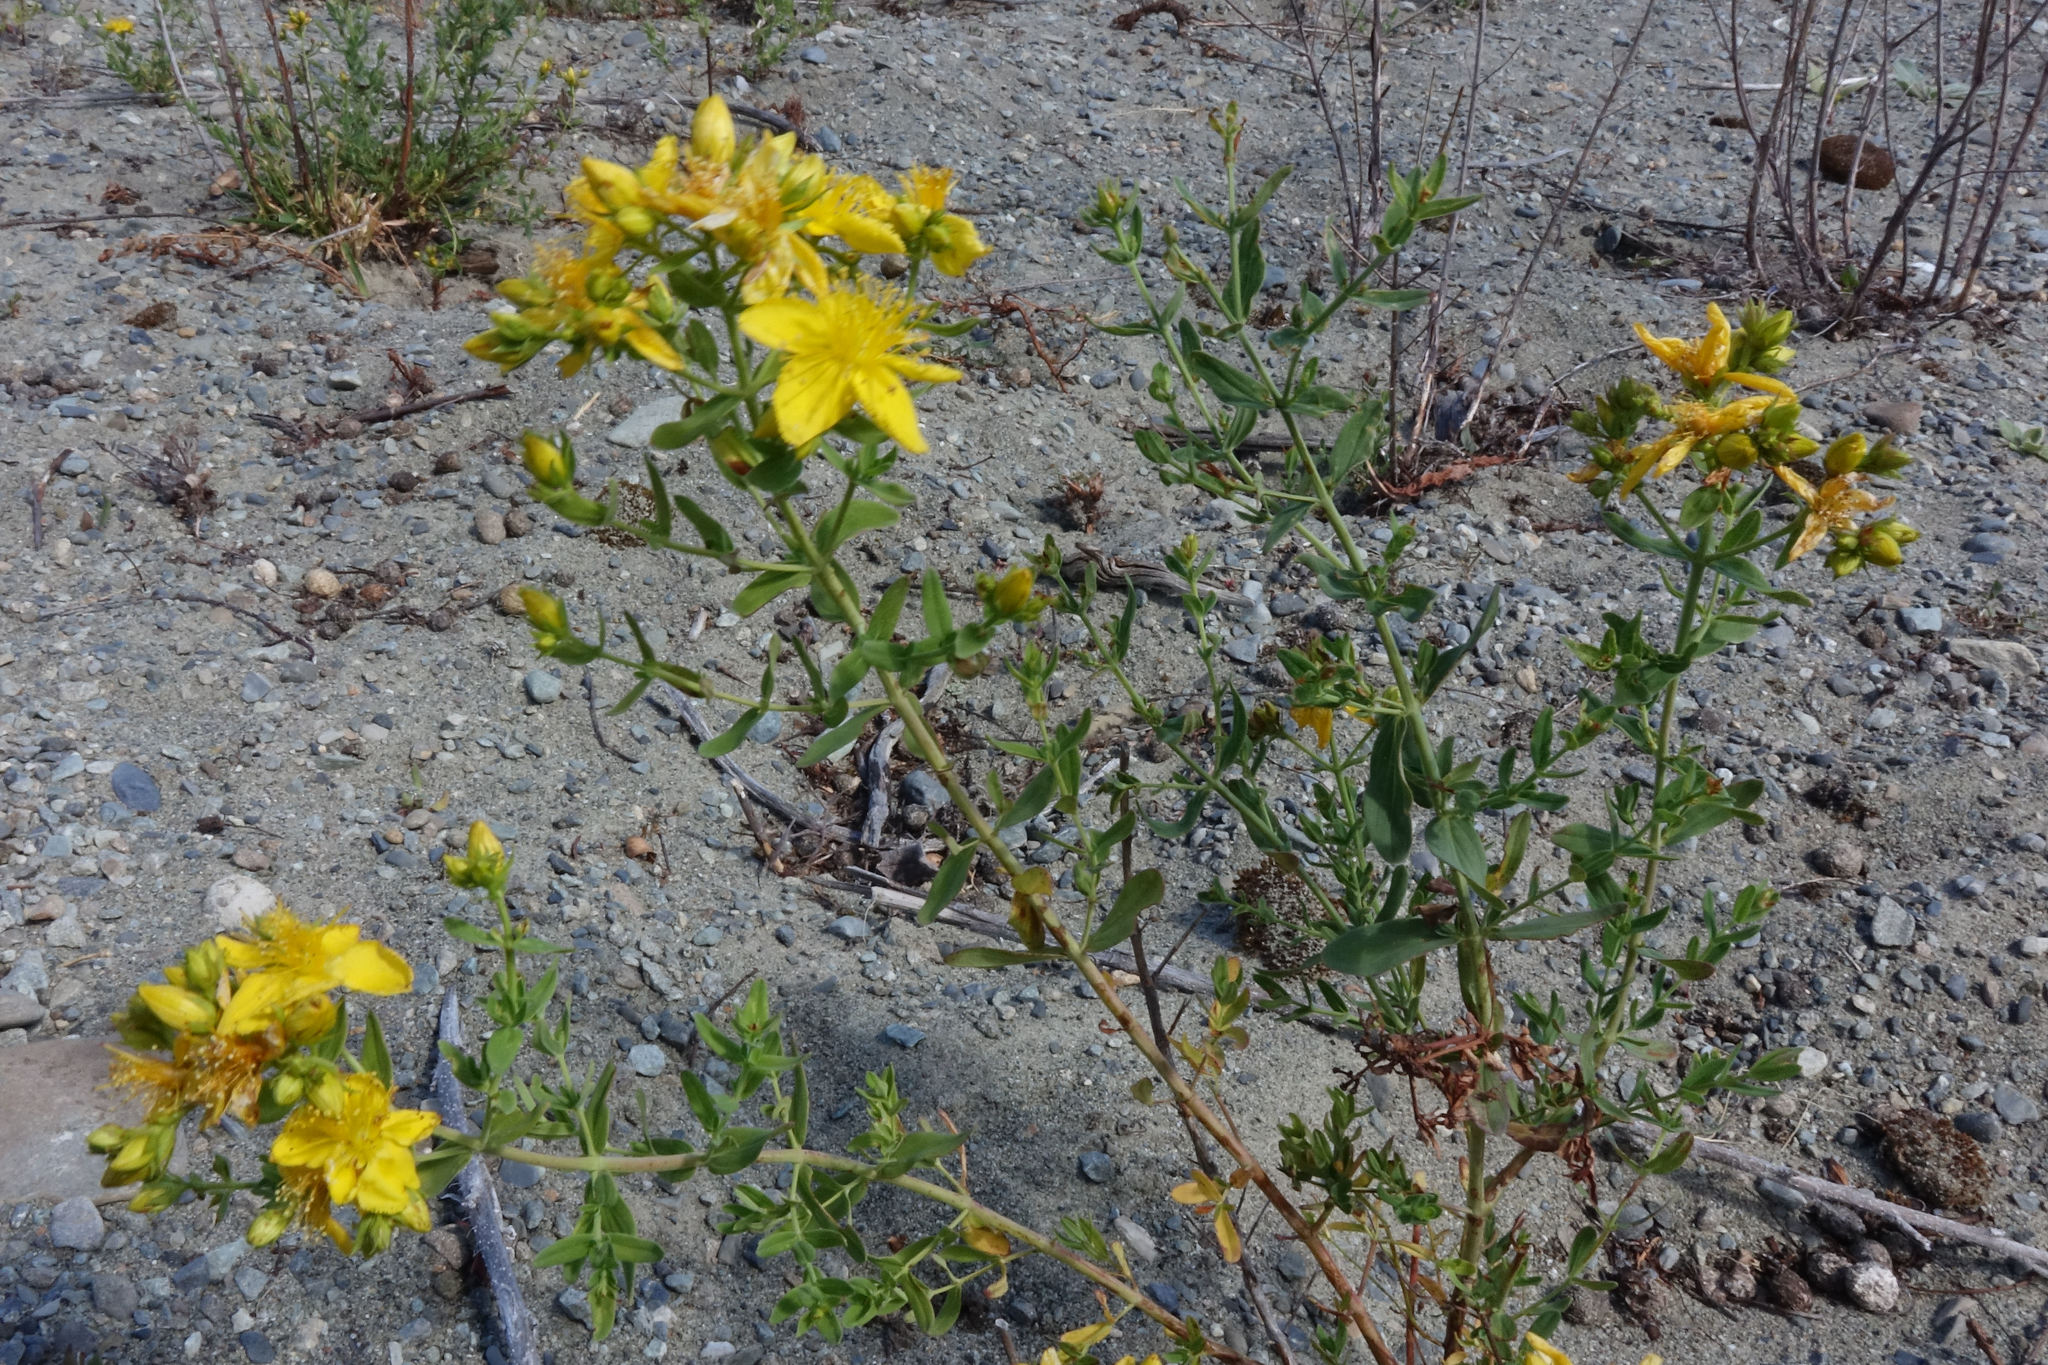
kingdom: Plantae
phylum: Tracheophyta
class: Magnoliopsida
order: Malpighiales
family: Hypericaceae
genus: Hypericum
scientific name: Hypericum perforatum
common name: Common st. johnswort
